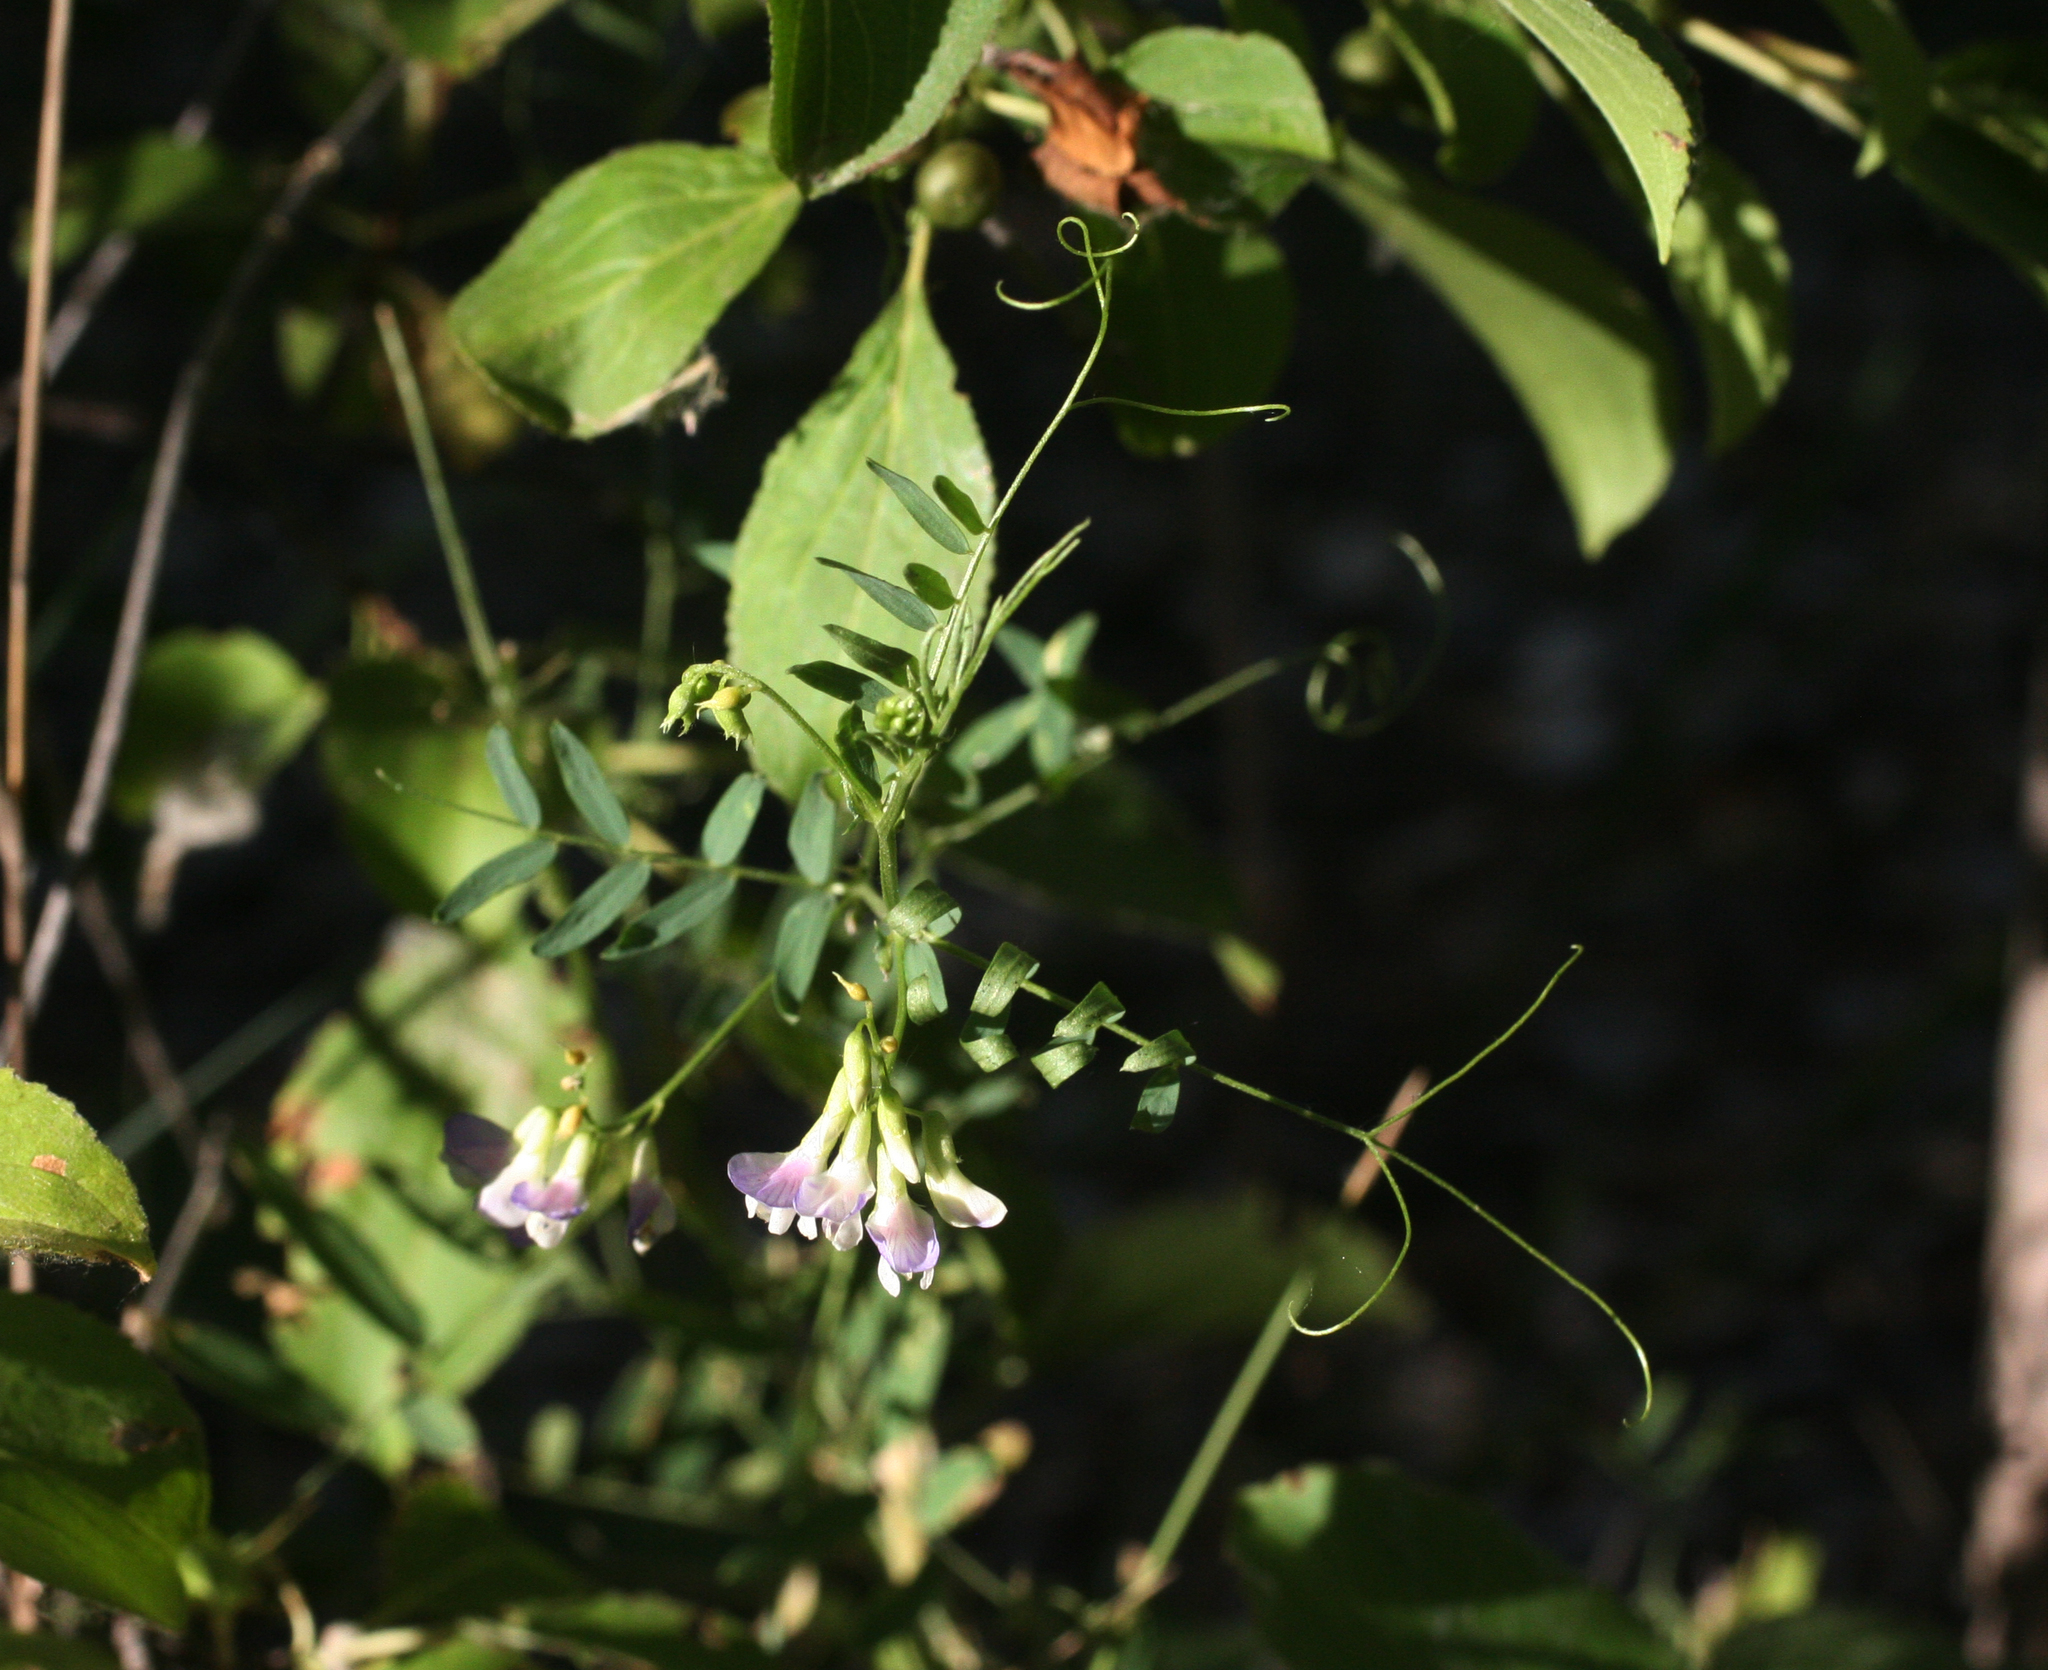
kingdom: Plantae
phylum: Tracheophyta
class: Magnoliopsida
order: Fabales
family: Fabaceae
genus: Vicia
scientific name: Vicia biennis
